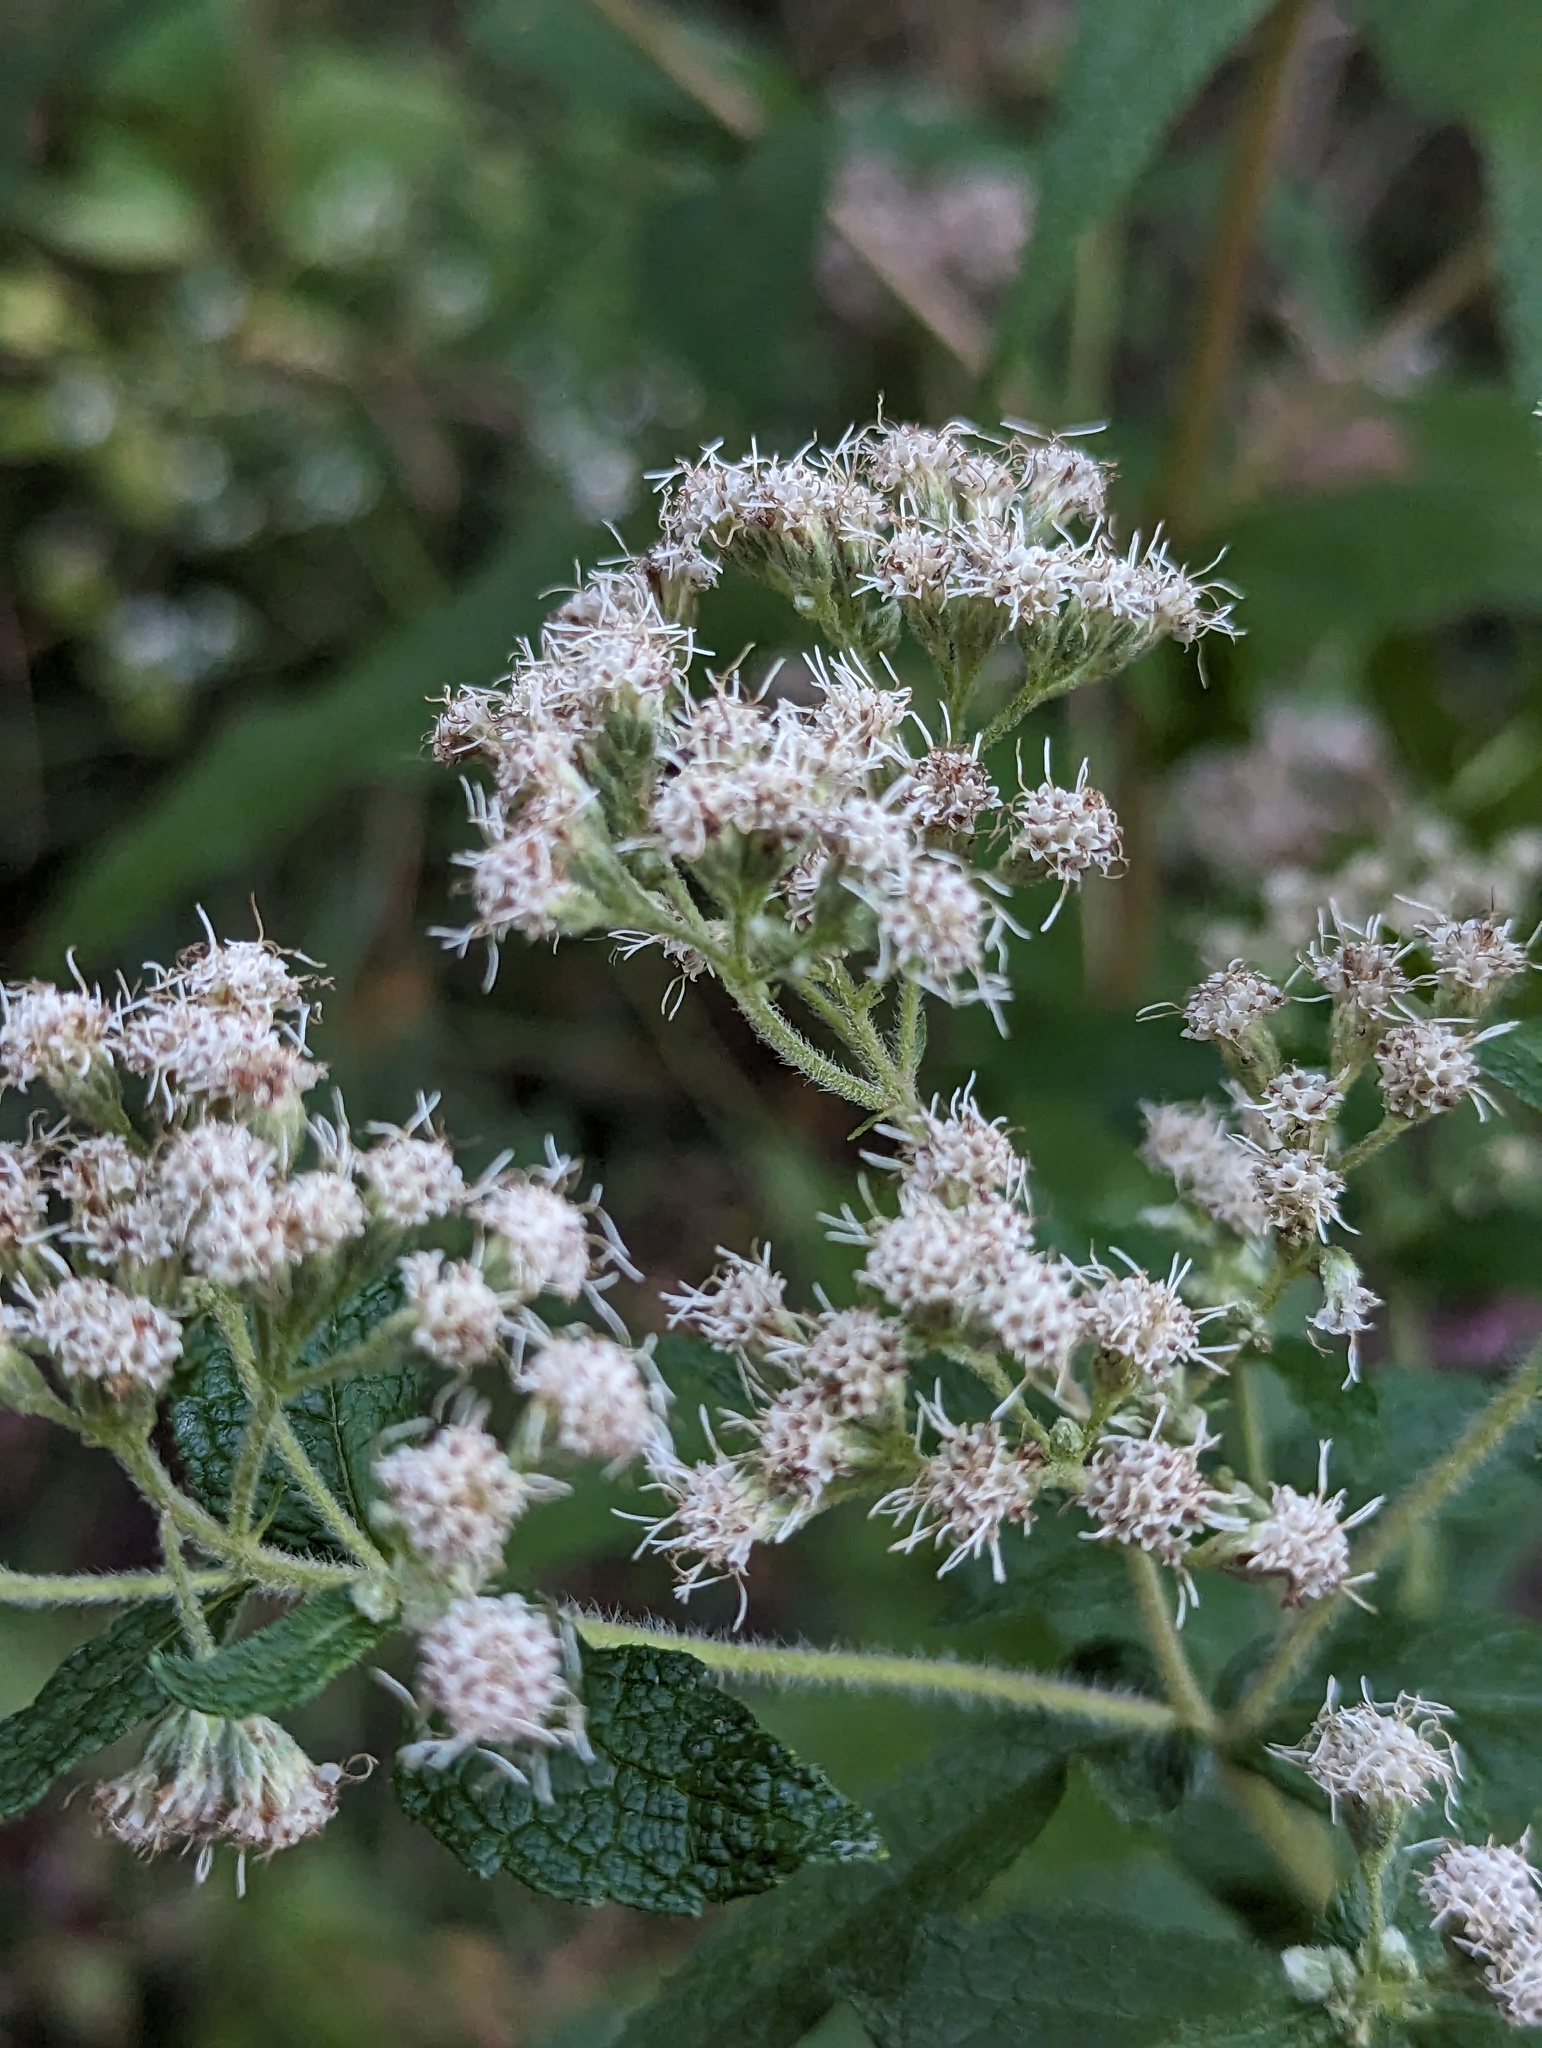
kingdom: Plantae
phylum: Tracheophyta
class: Magnoliopsida
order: Asterales
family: Asteraceae
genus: Eupatorium
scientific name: Eupatorium perfoliatum
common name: Boneset
